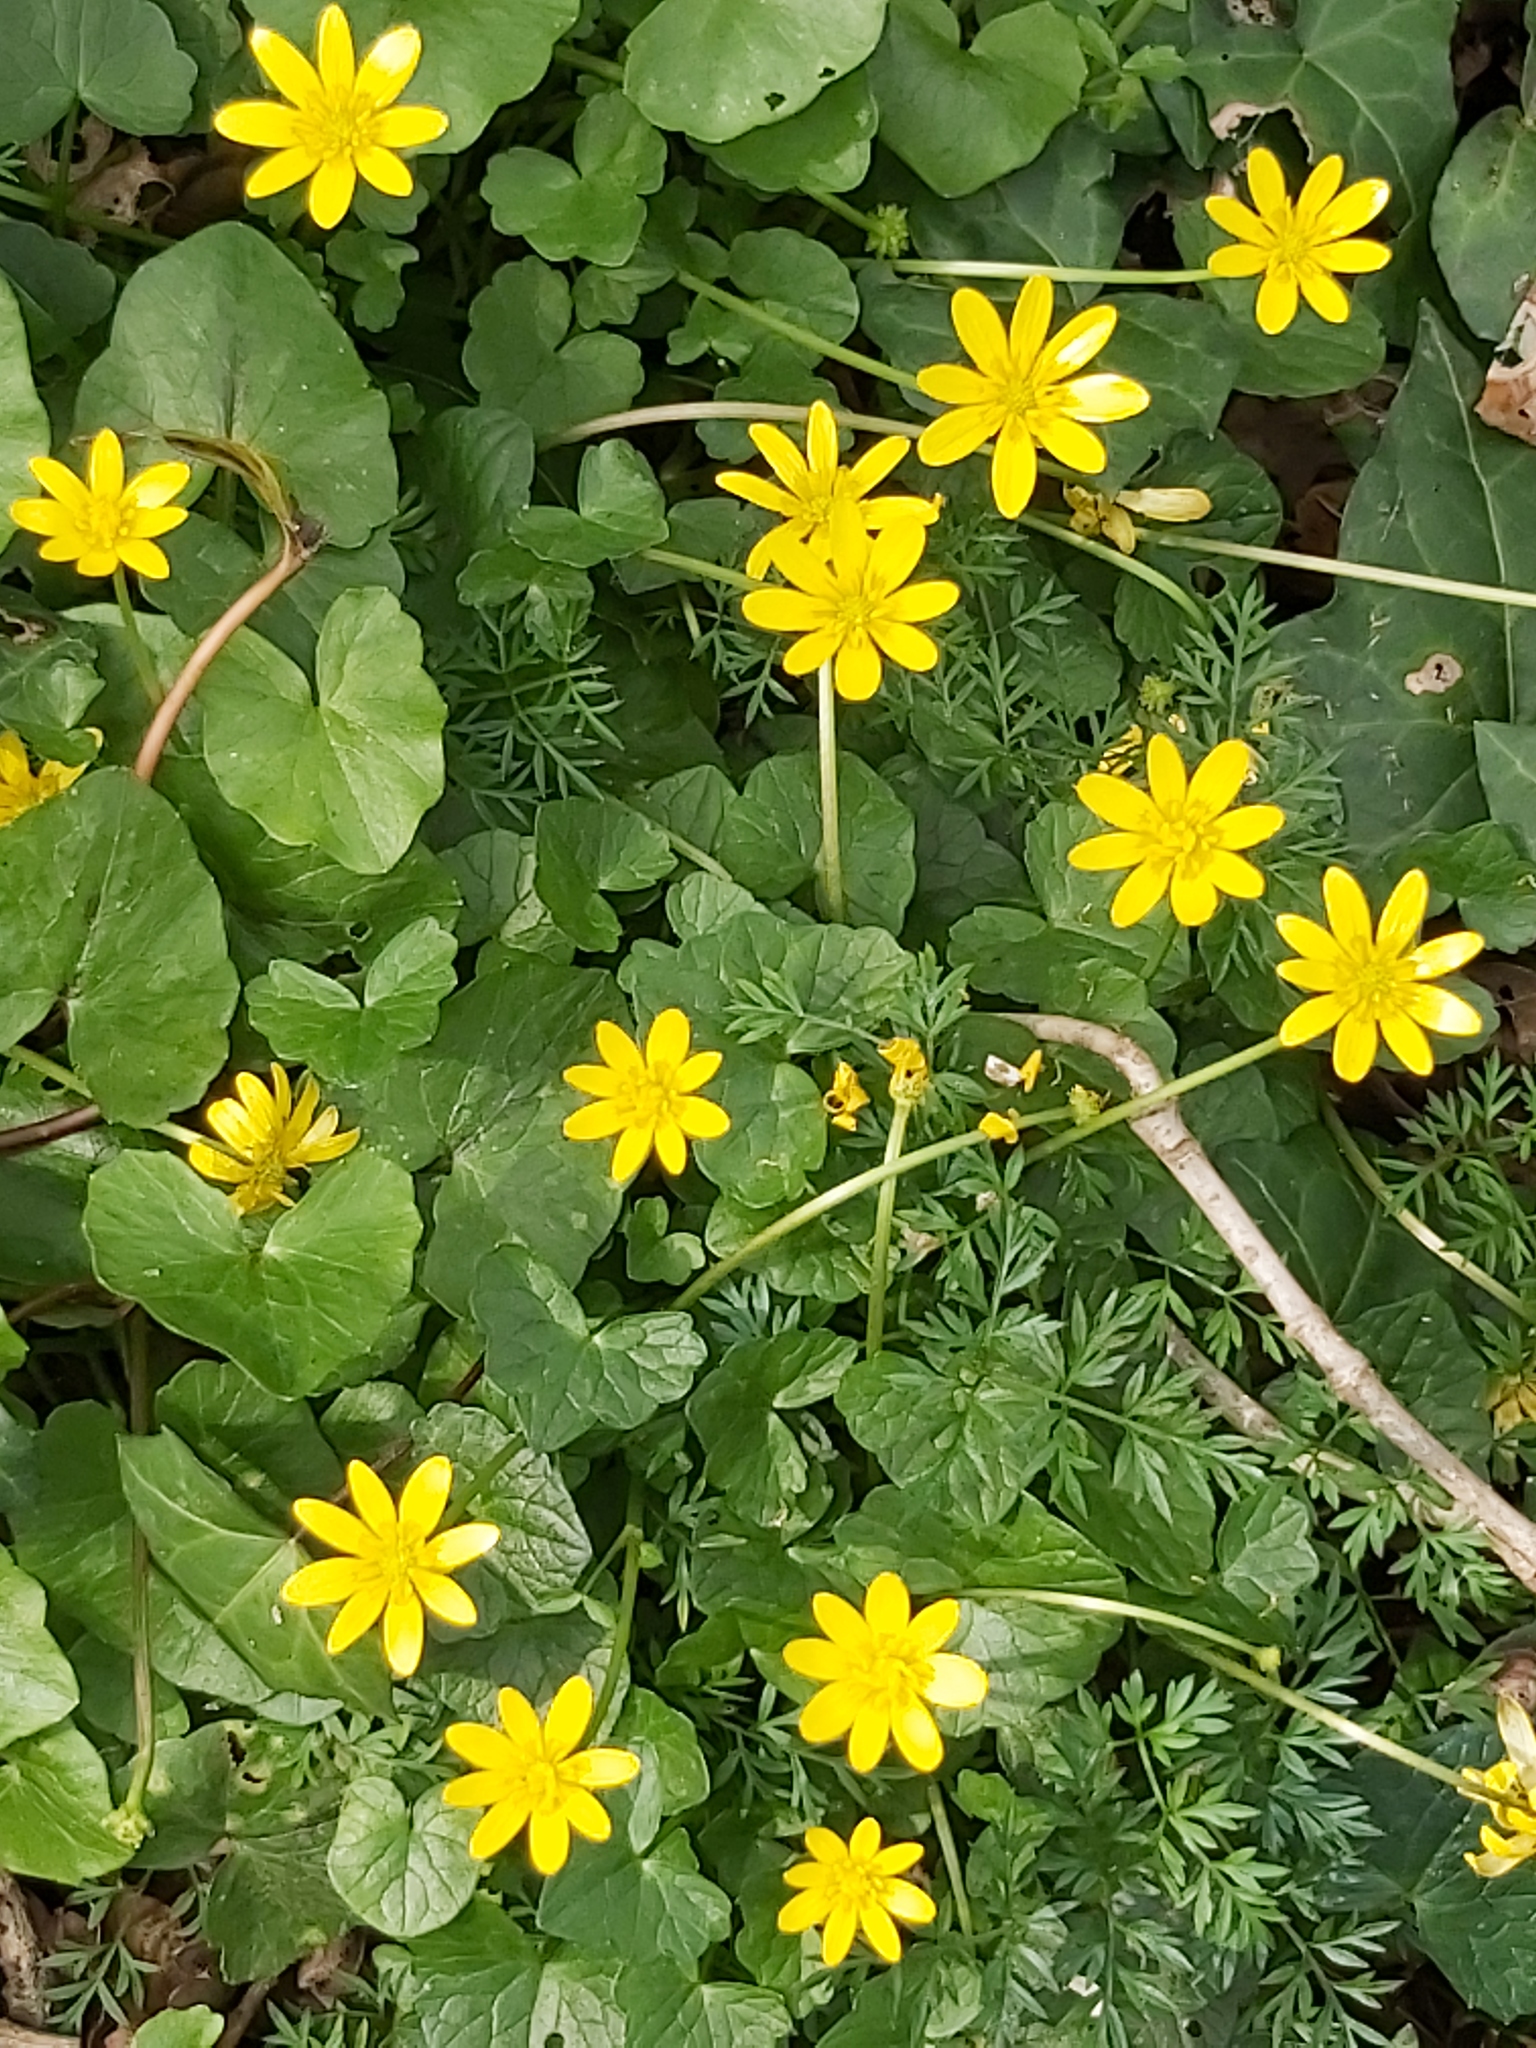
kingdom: Plantae
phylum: Tracheophyta
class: Magnoliopsida
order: Ranunculales
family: Ranunculaceae
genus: Ficaria
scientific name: Ficaria verna
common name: Lesser celandine
